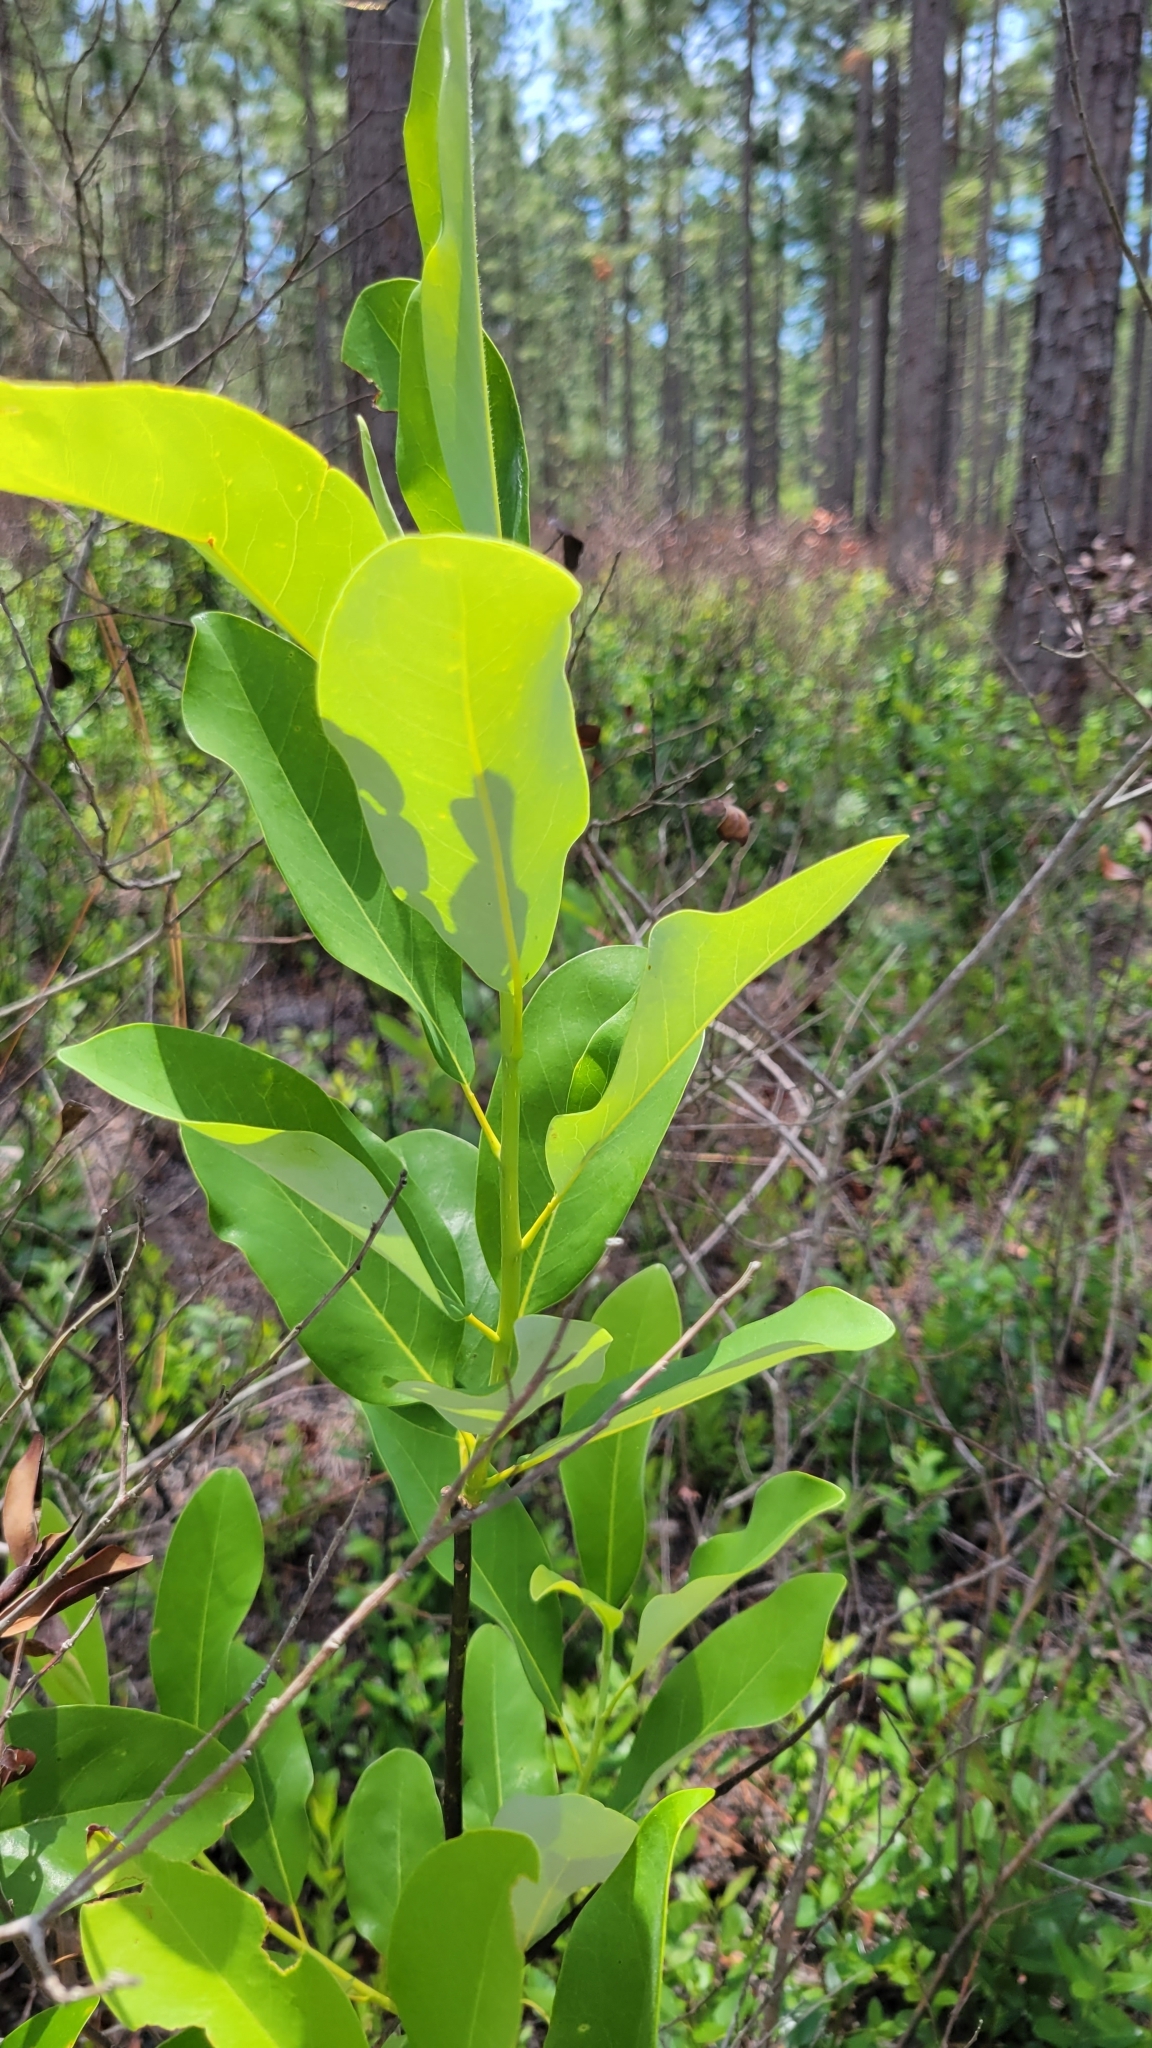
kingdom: Plantae
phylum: Tracheophyta
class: Magnoliopsida
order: Magnoliales
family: Magnoliaceae
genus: Magnolia
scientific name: Magnolia virginiana
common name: Swamp bay
